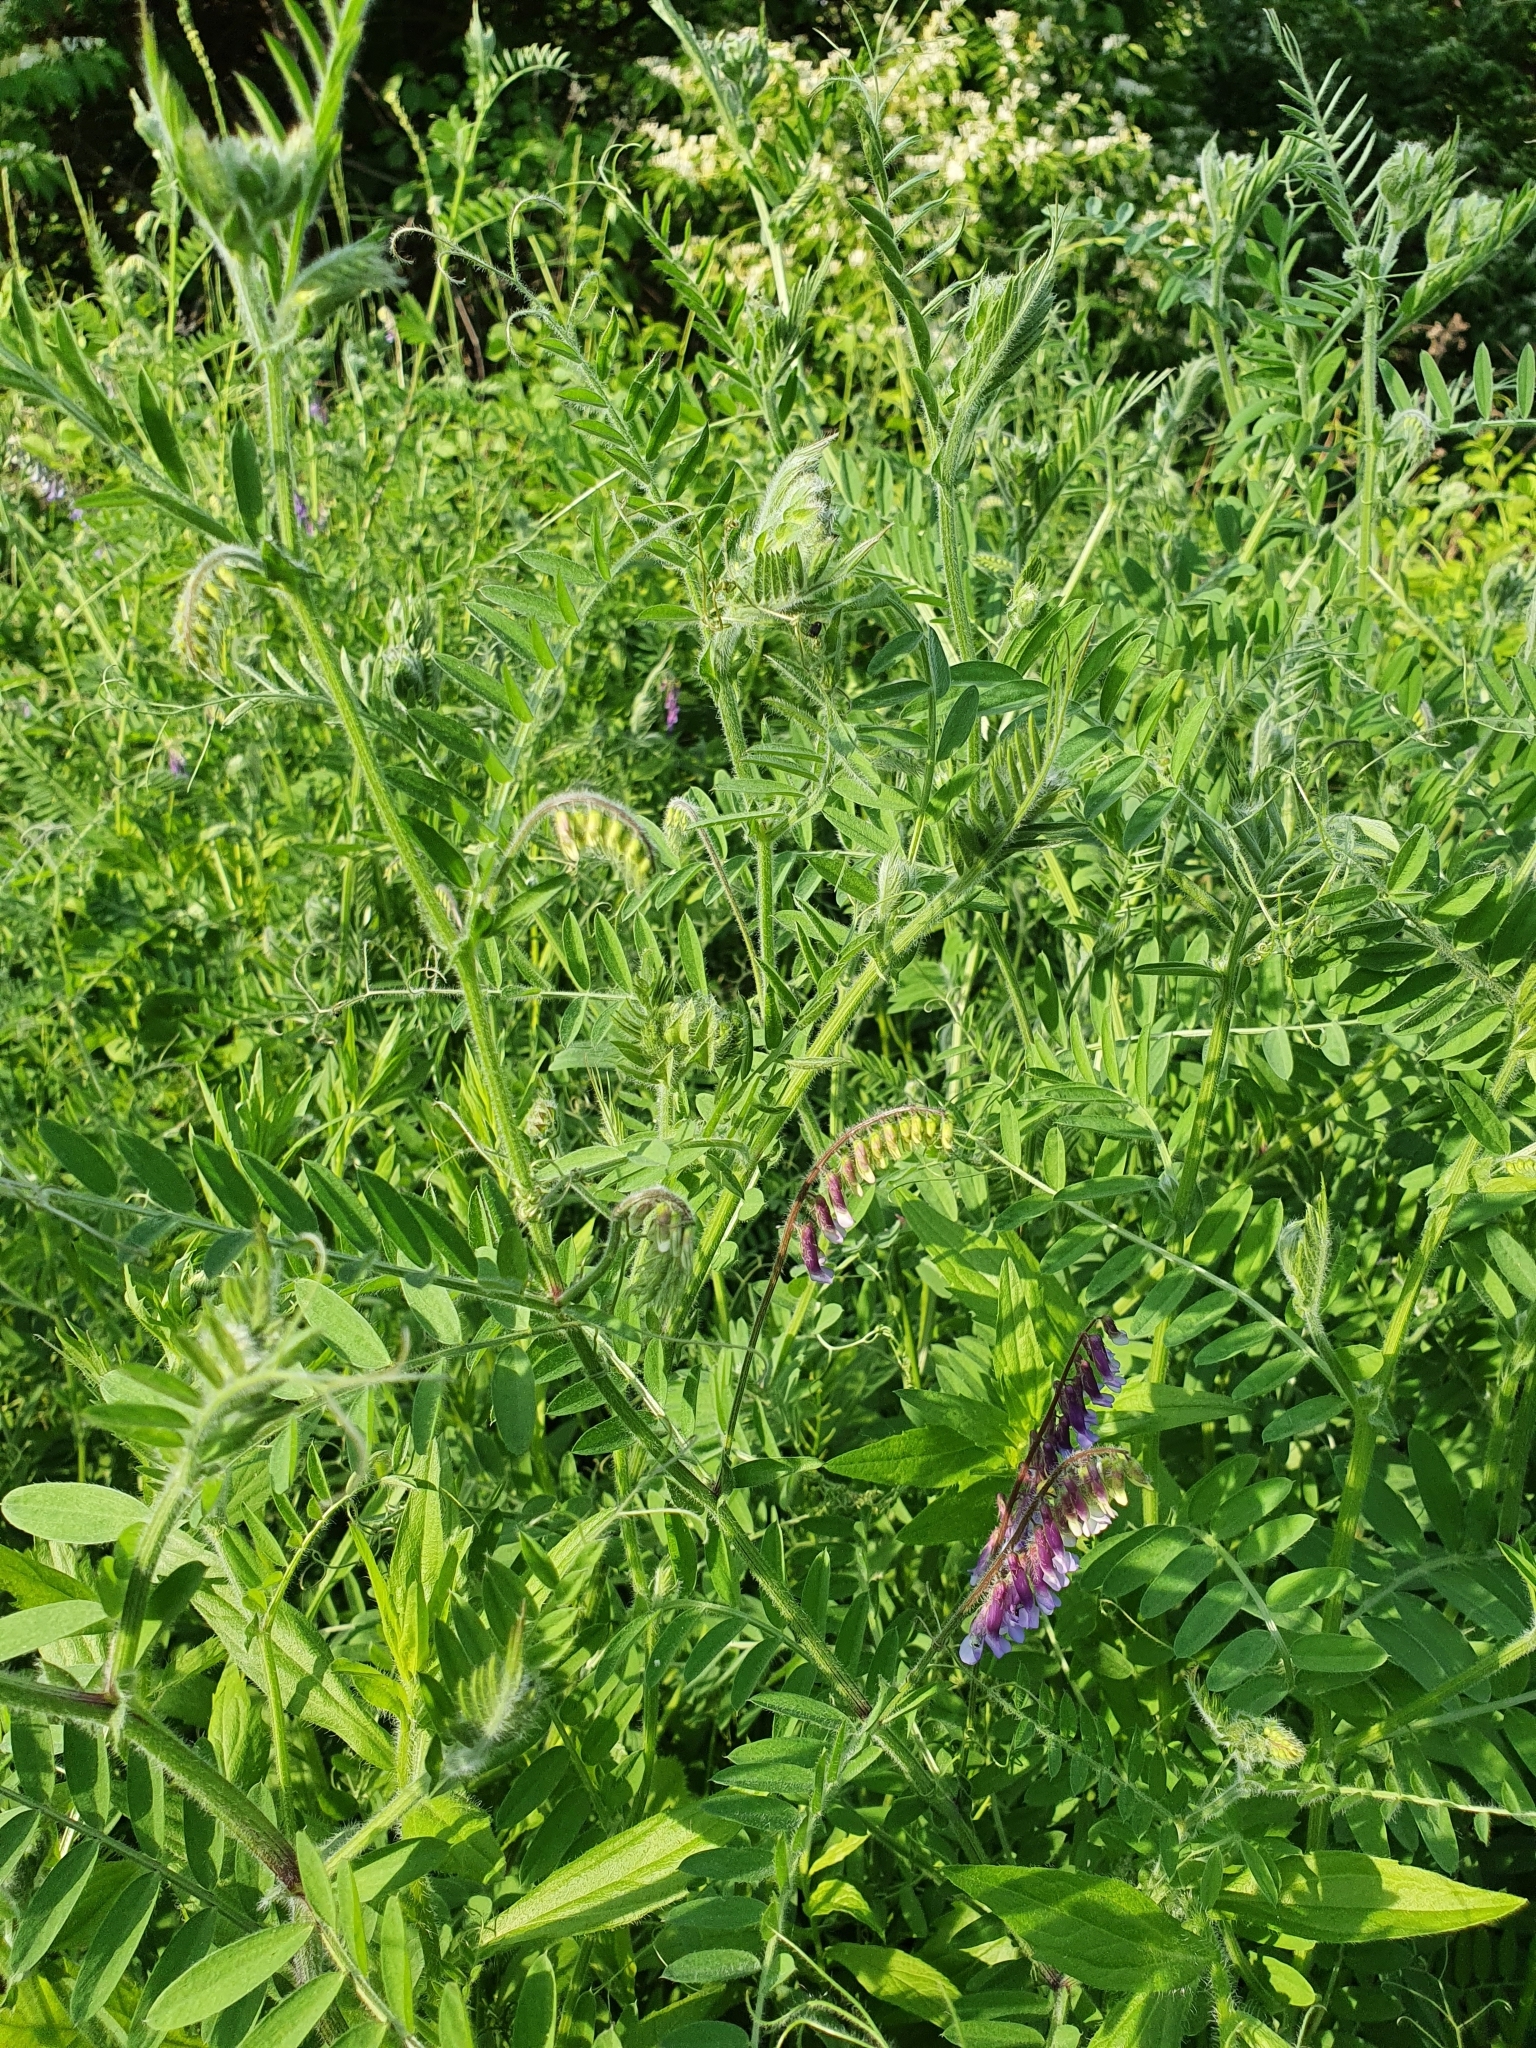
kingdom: Plantae
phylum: Tracheophyta
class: Magnoliopsida
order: Fabales
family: Fabaceae
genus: Vicia
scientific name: Vicia villosa
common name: Fodder vetch
